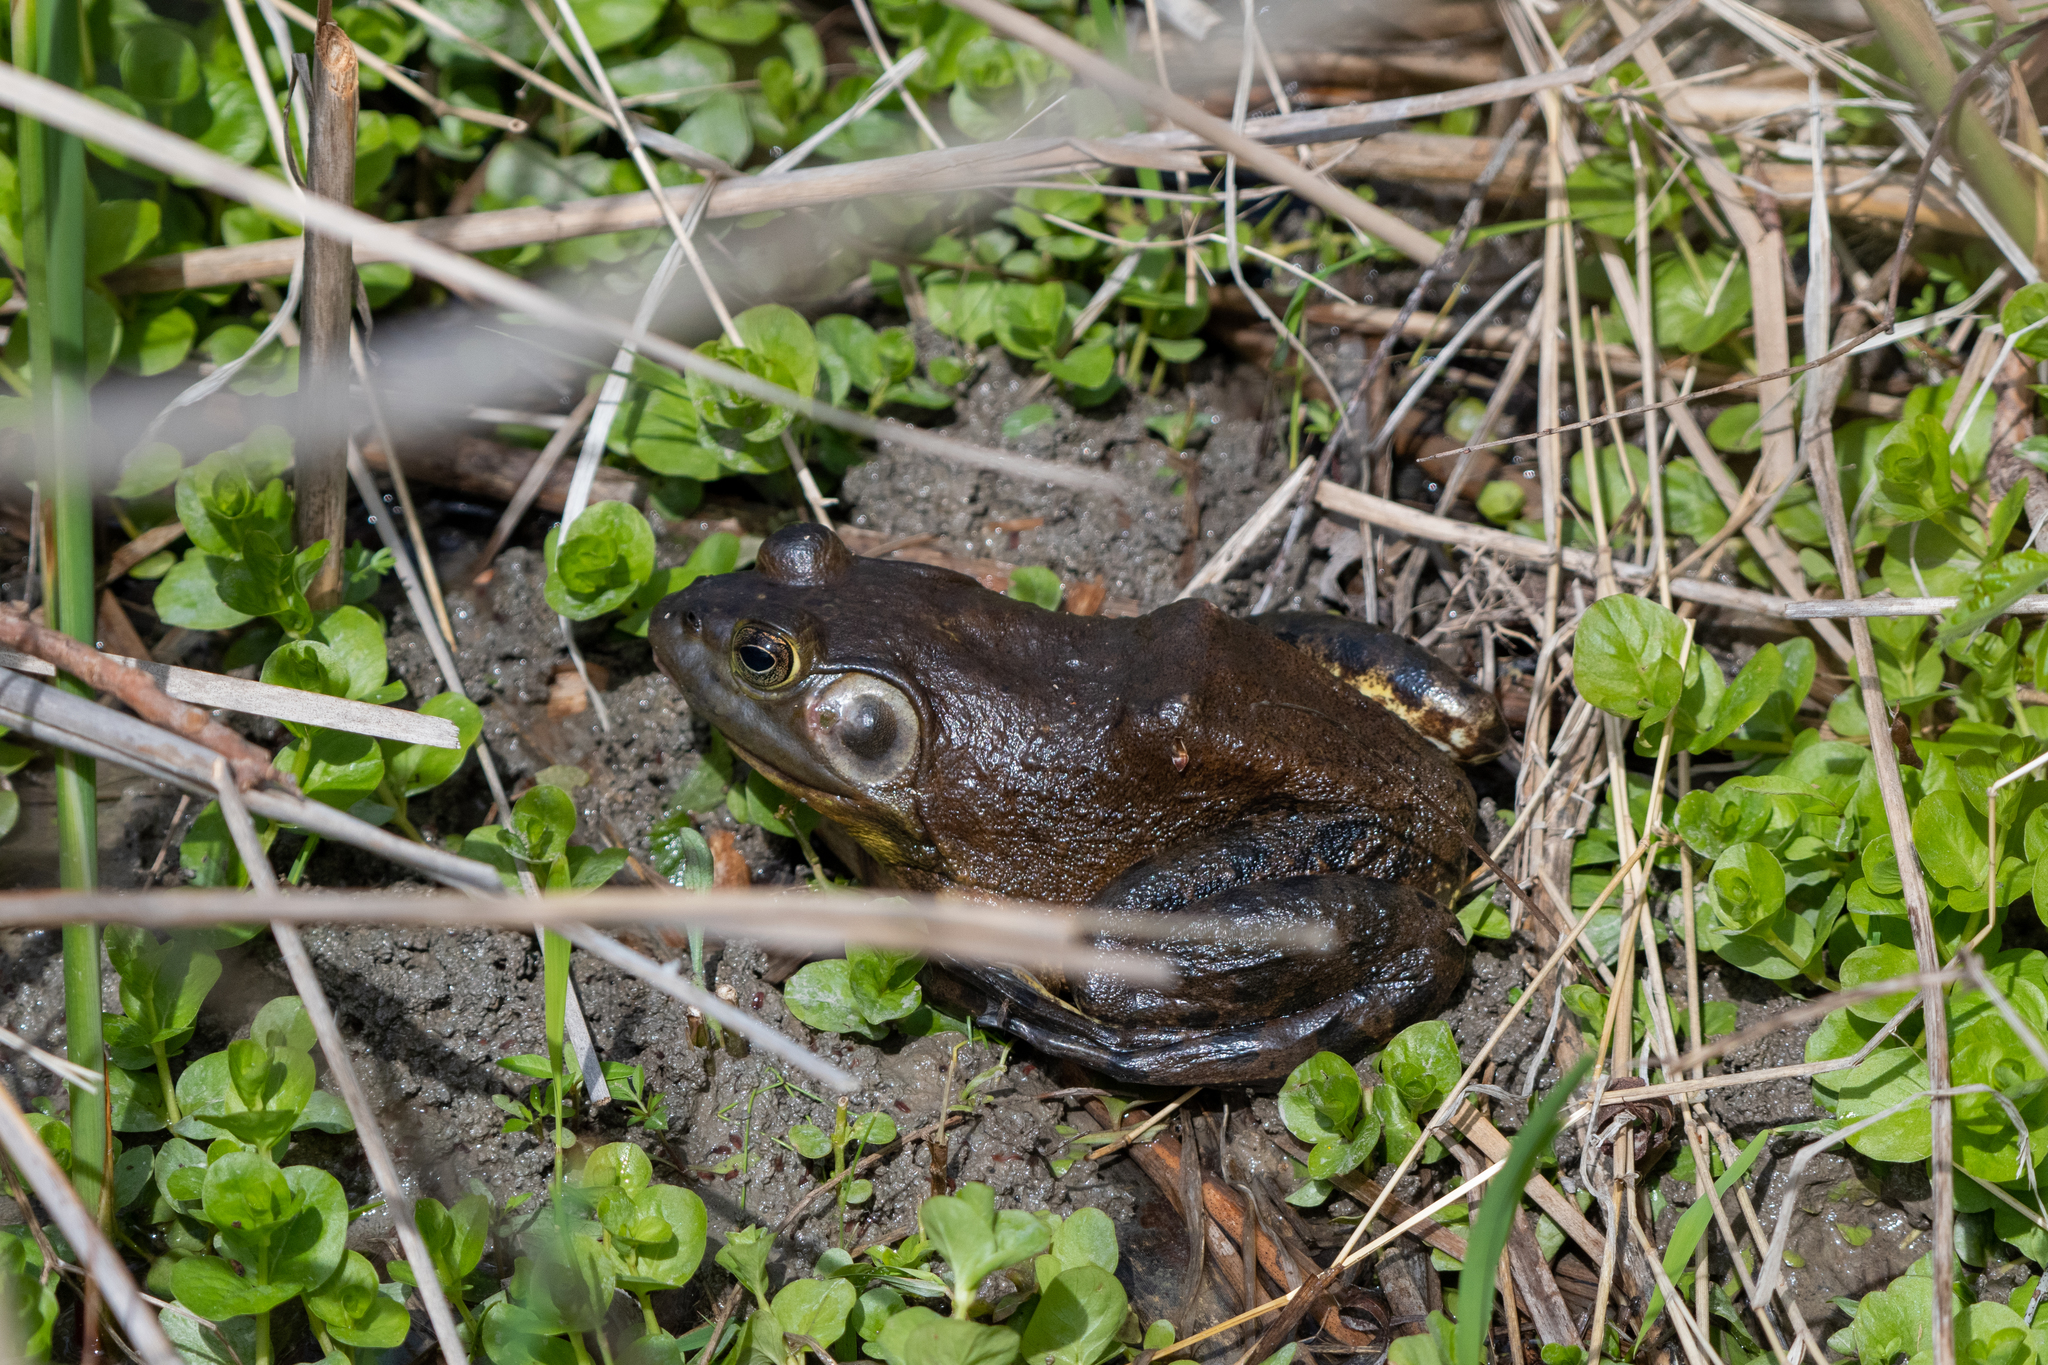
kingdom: Animalia
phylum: Chordata
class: Amphibia
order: Anura
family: Ranidae
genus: Lithobates
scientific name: Lithobates catesbeianus
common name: American bullfrog
